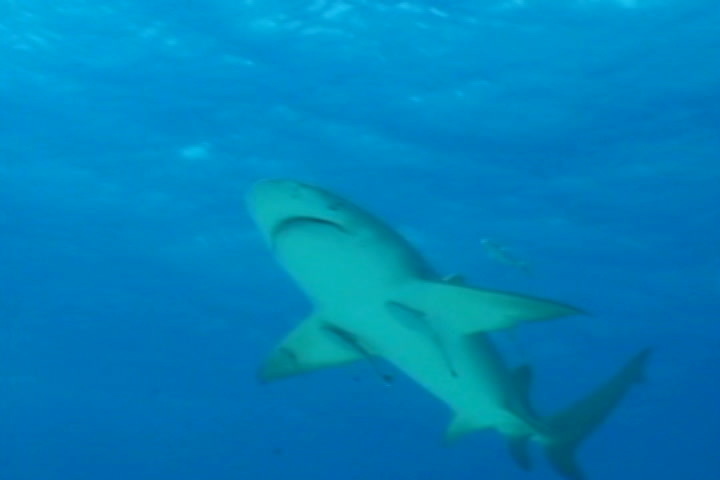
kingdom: Animalia
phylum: Chordata
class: Elasmobranchii
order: Carcharhiniformes
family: Carcharhinidae
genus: Negaprion
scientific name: Negaprion brevirostris
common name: Lemon shark
